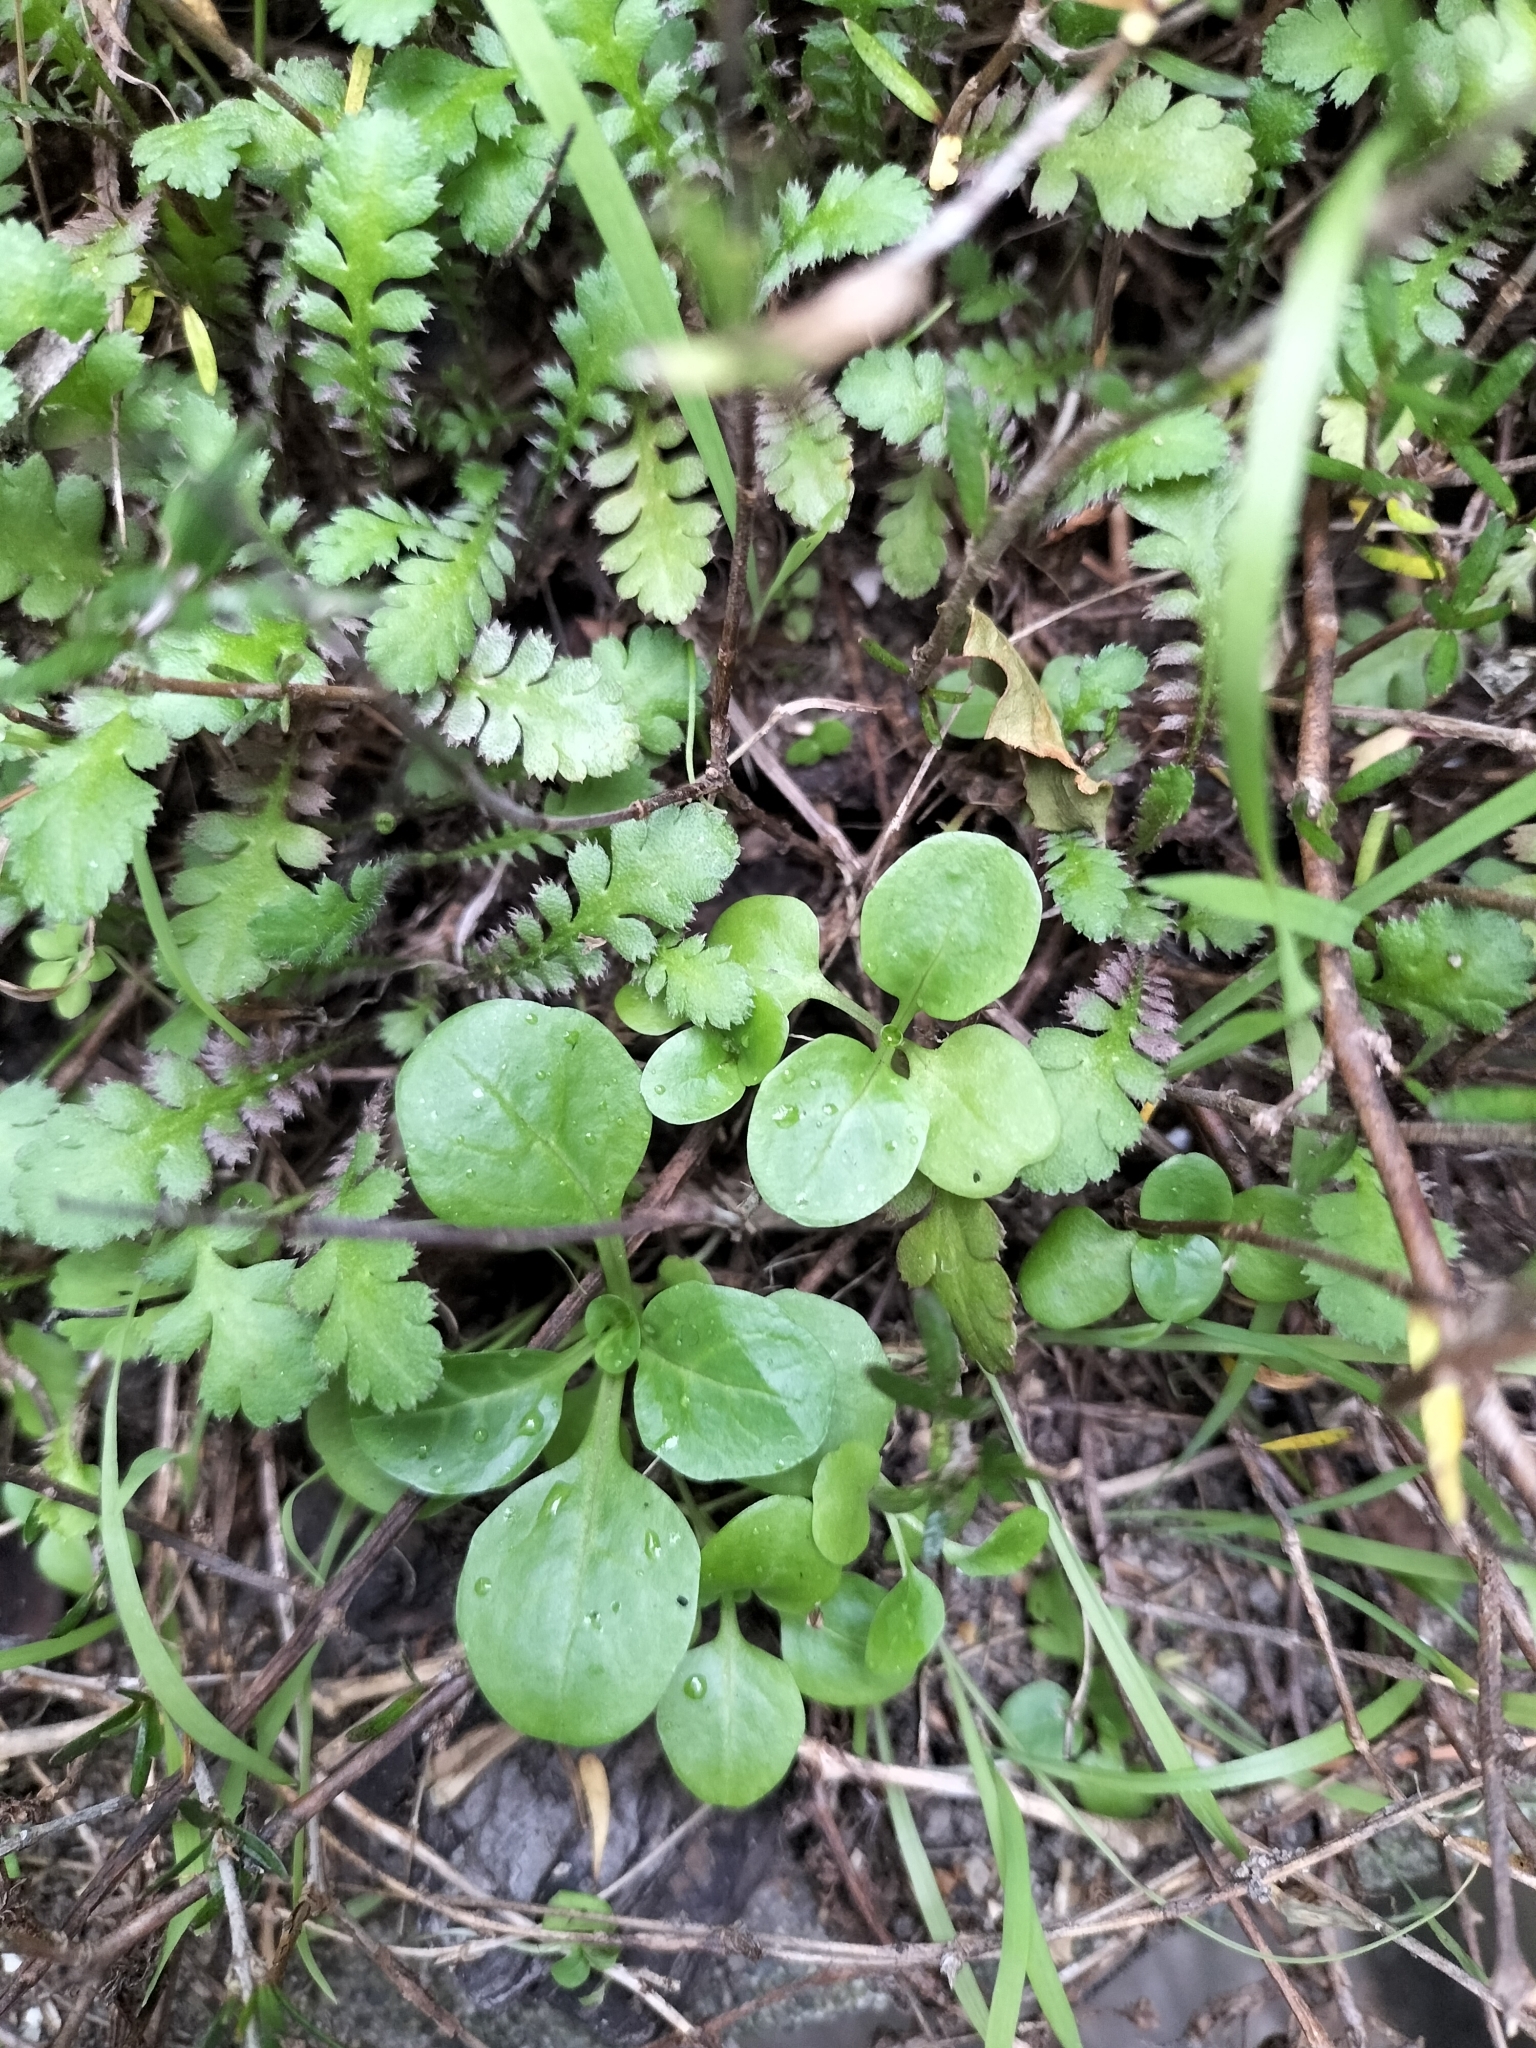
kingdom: Plantae
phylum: Tracheophyta
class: Magnoliopsida
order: Dipsacales
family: Caprifoliaceae
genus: Valerianella
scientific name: Valerianella locusta
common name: Common cornsalad
